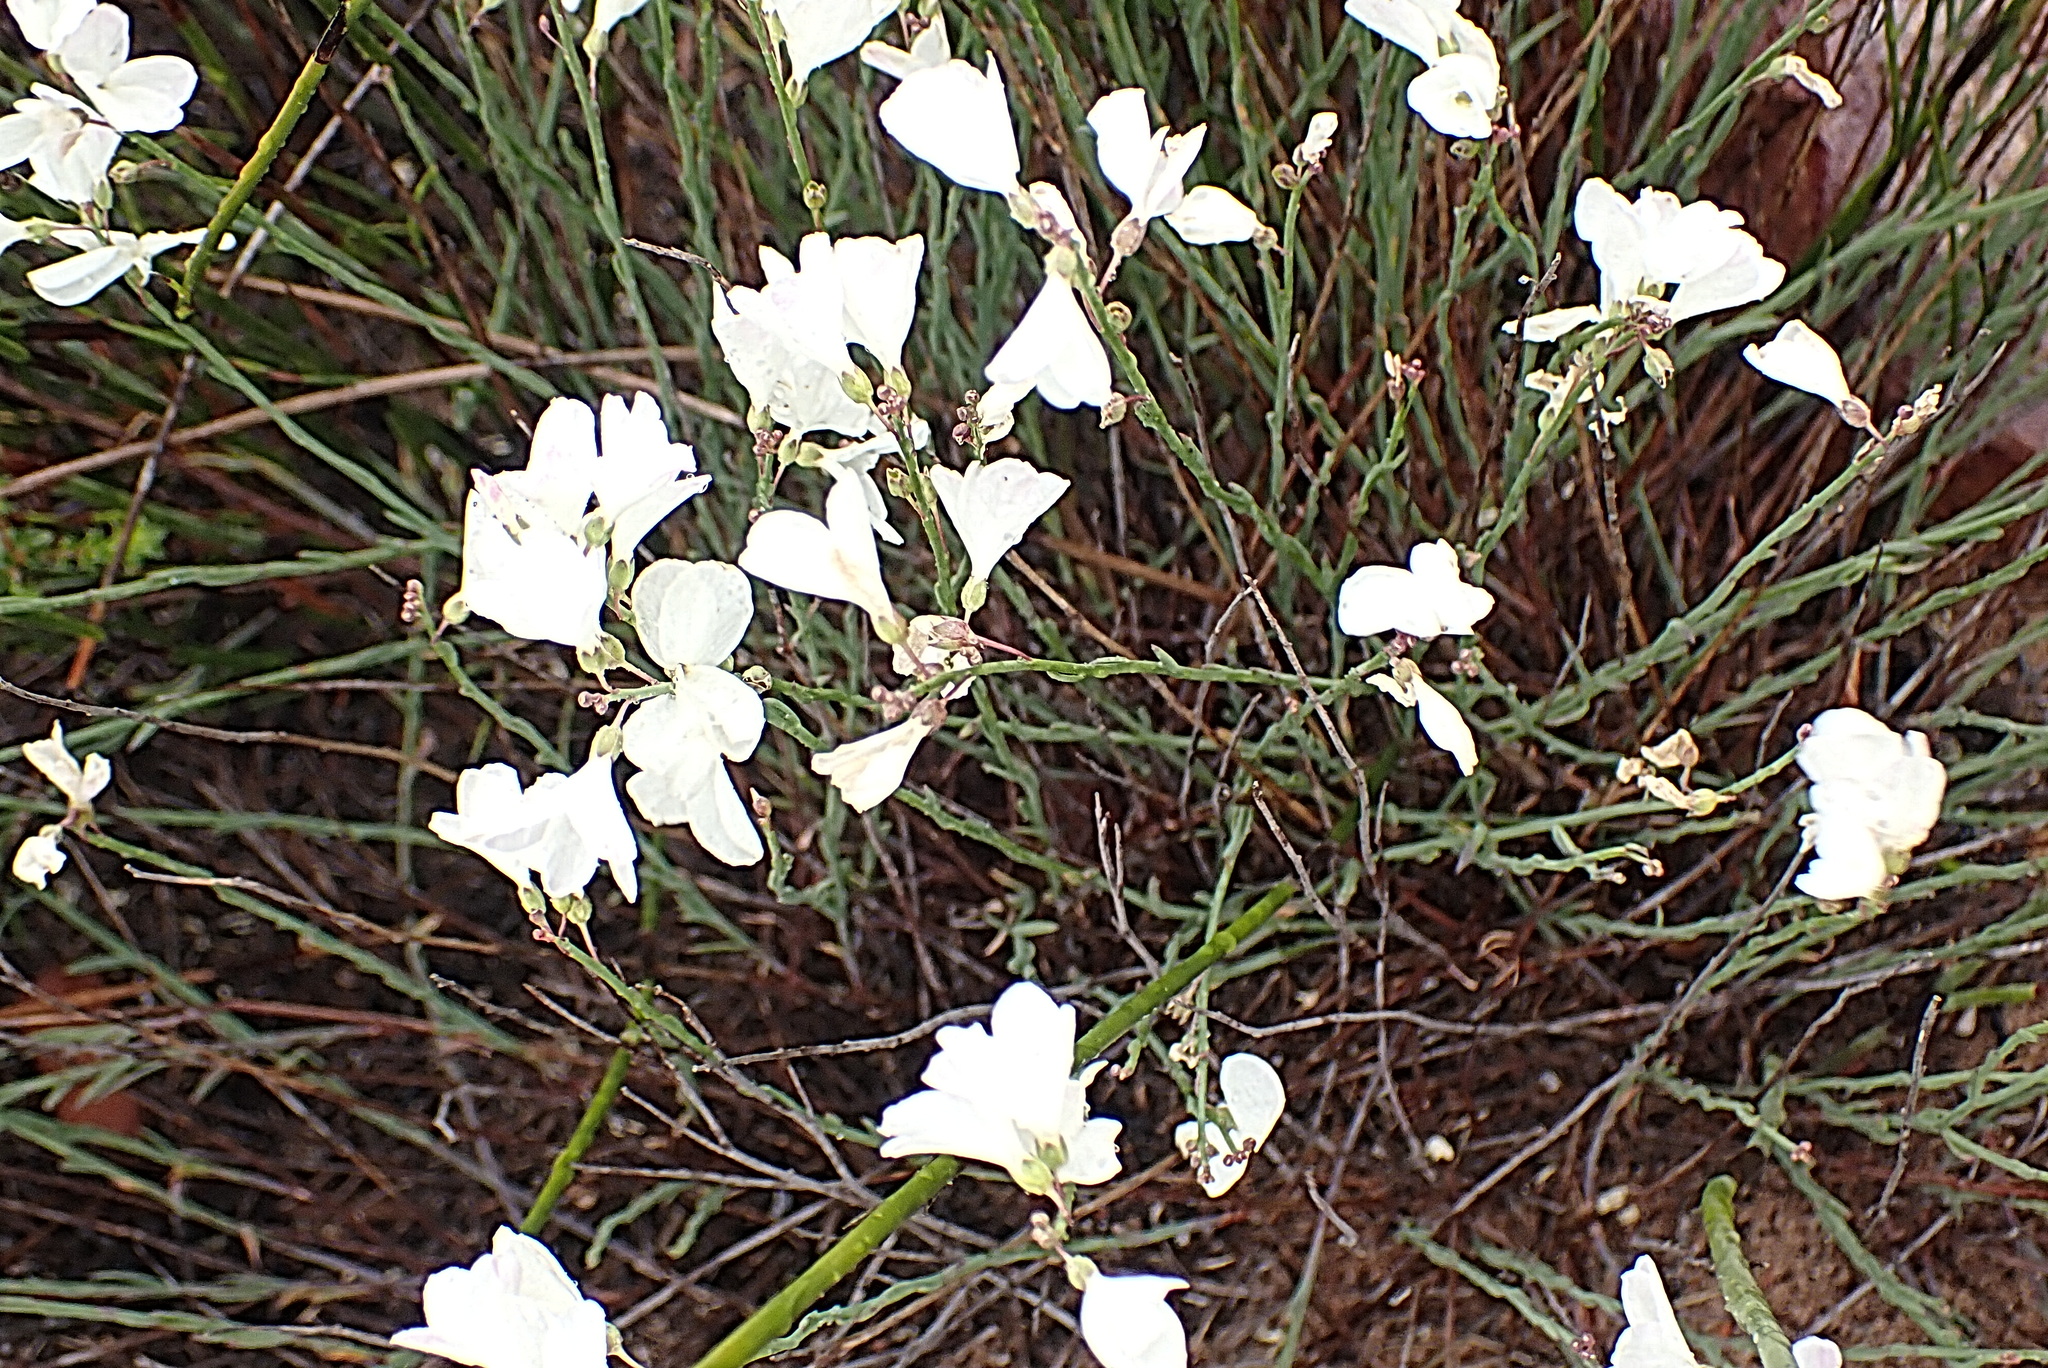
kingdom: Plantae
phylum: Tracheophyta
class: Magnoliopsida
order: Brassicales
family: Brassicaceae
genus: Heliophila
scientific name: Heliophila juncea
